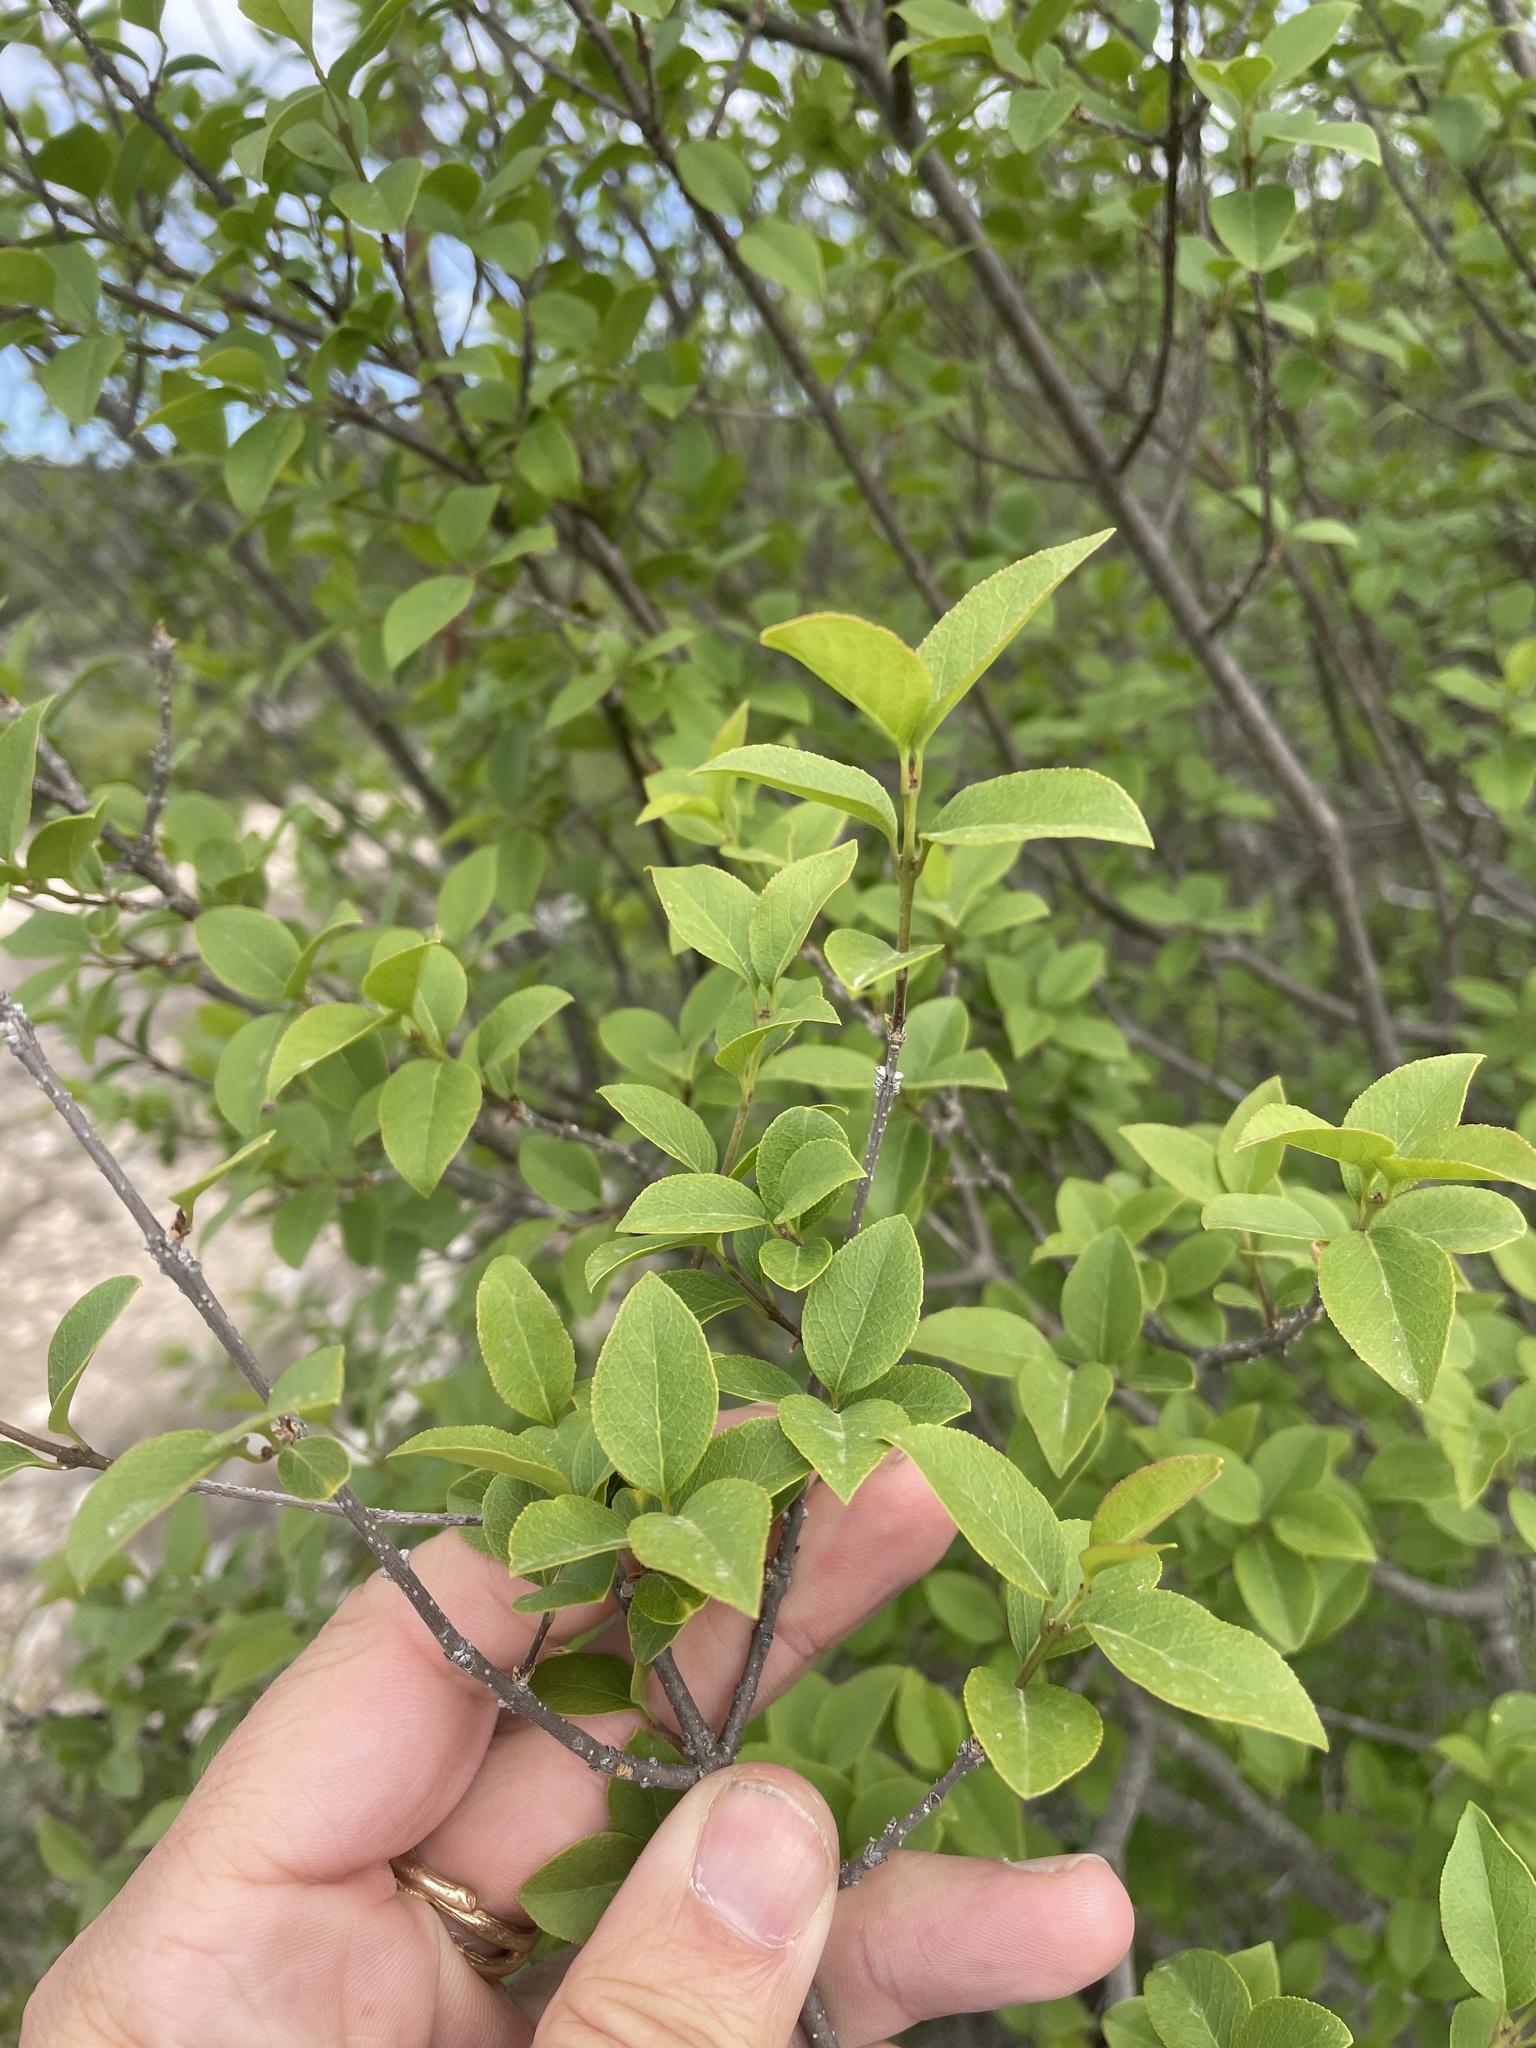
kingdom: Plantae
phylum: Tracheophyta
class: Magnoliopsida
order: Lamiales
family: Oleaceae
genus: Forestiera
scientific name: Forestiera reticulata
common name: Netleaf swamp-privet
